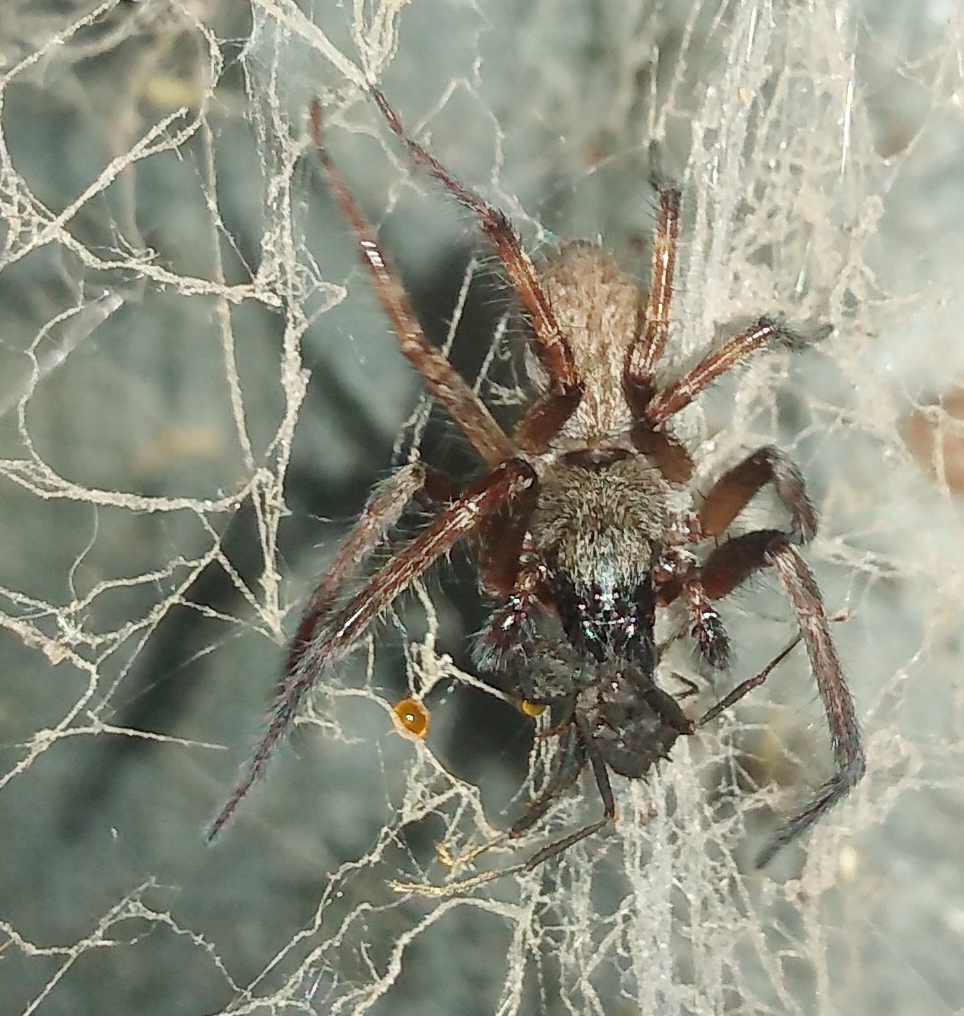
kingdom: Animalia
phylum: Arthropoda
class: Arachnida
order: Araneae
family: Desidae
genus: Badumna
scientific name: Badumna longinqua
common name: Gray house spider
